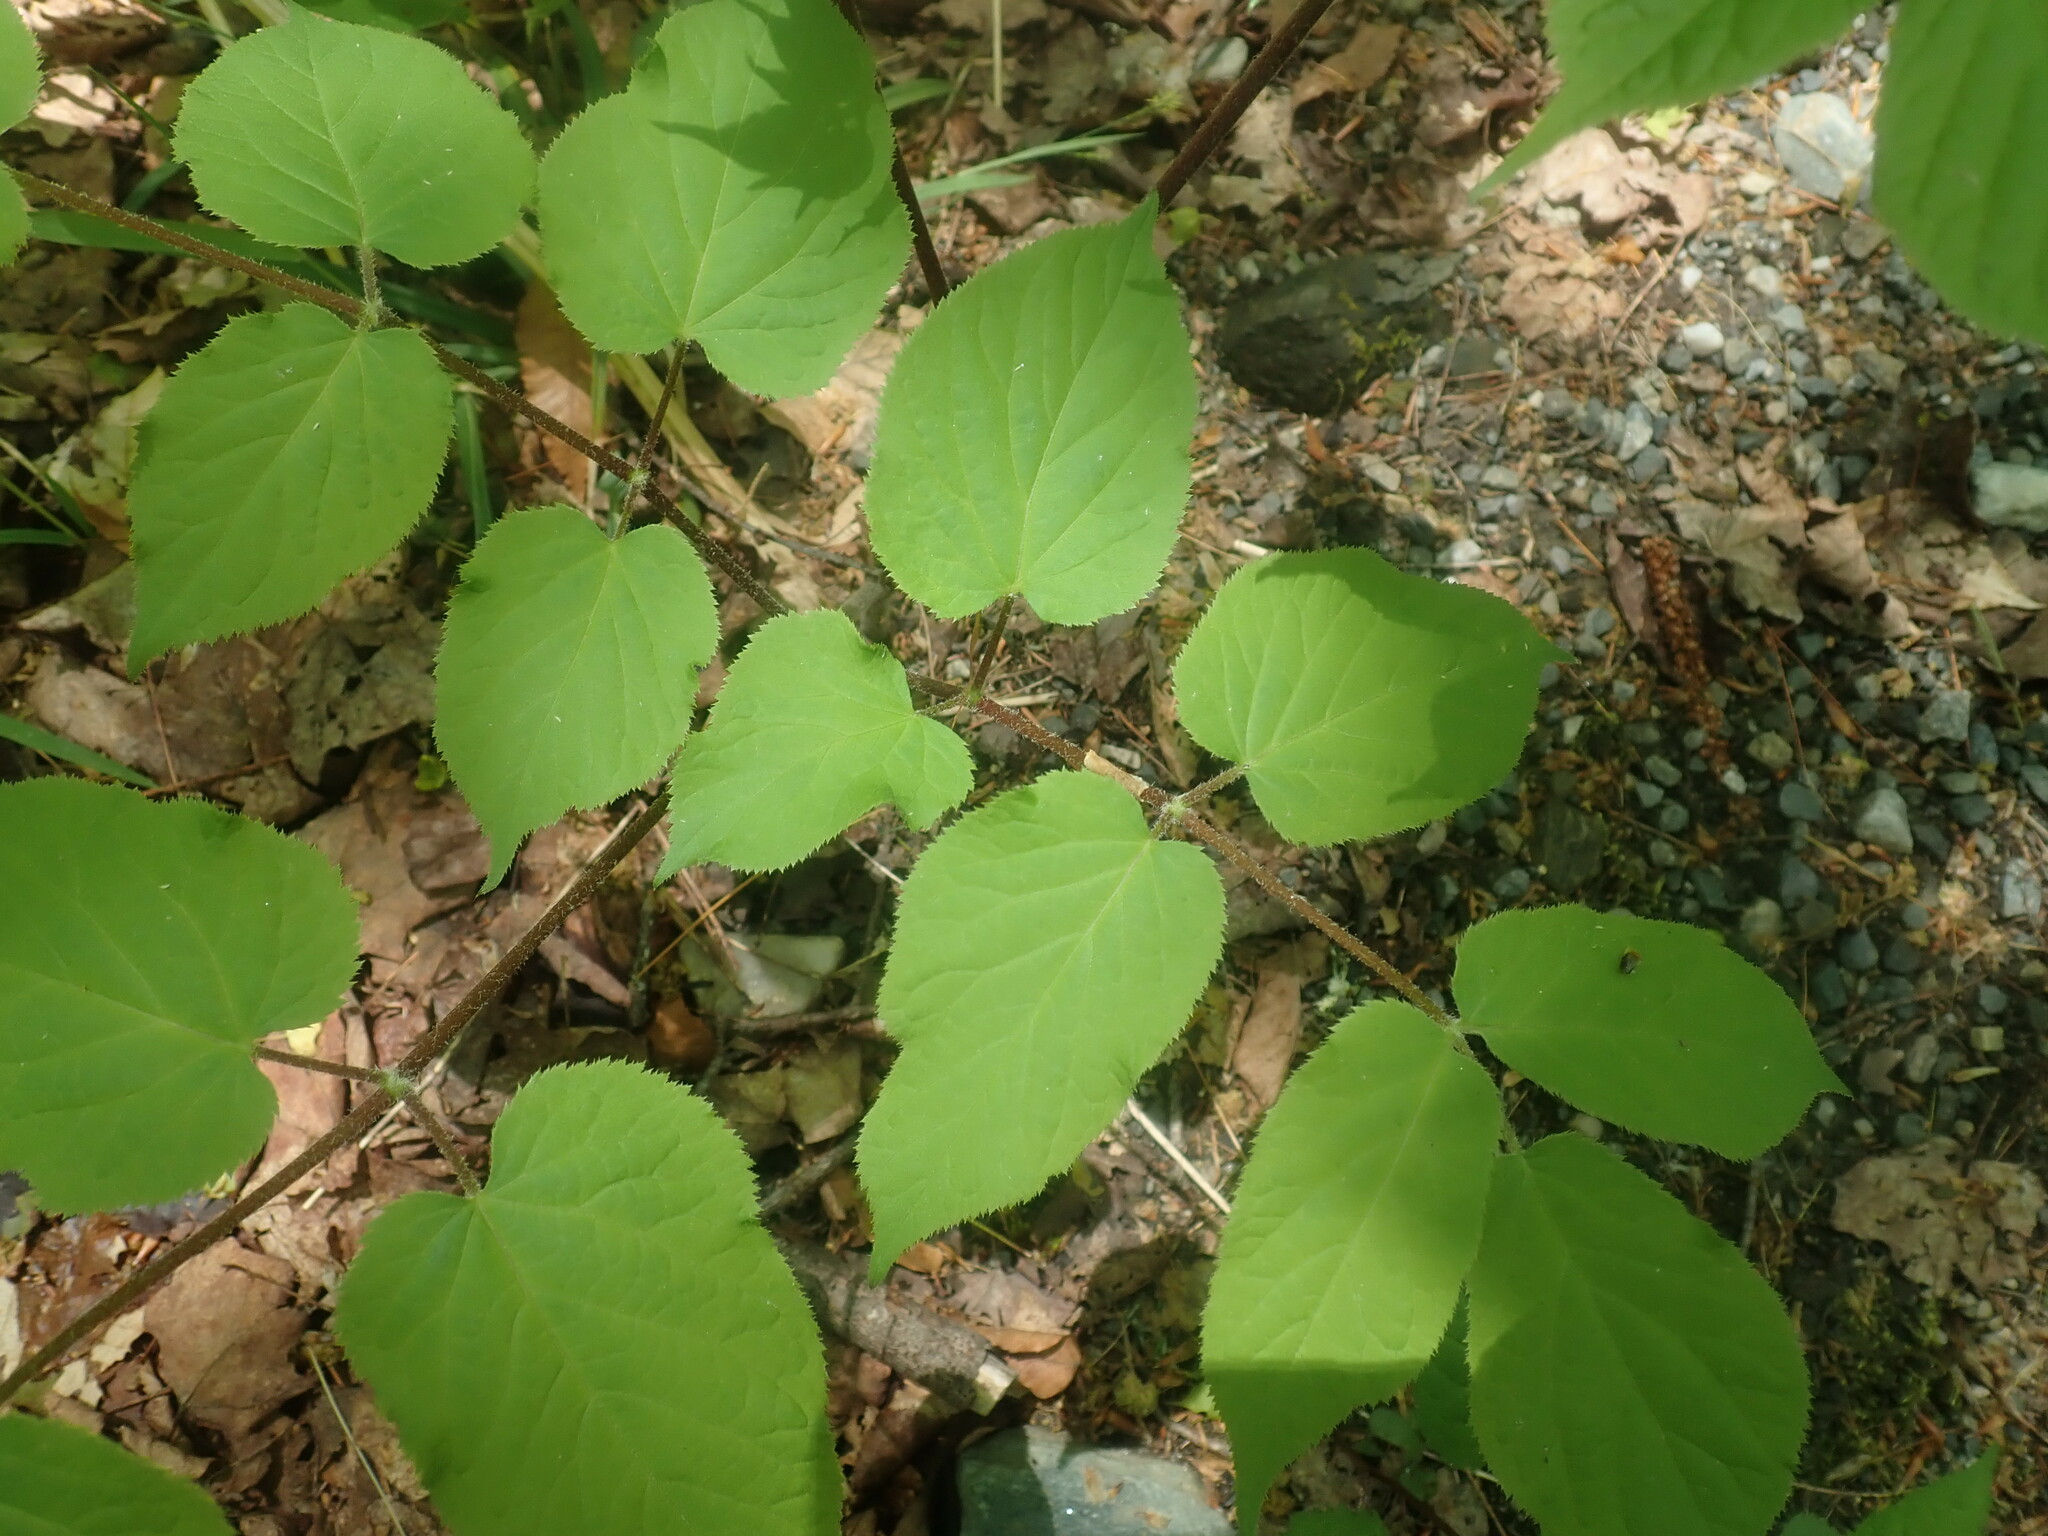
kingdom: Plantae
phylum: Tracheophyta
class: Magnoliopsida
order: Apiales
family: Araliaceae
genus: Aralia
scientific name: Aralia racemosa
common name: American-spikenard
